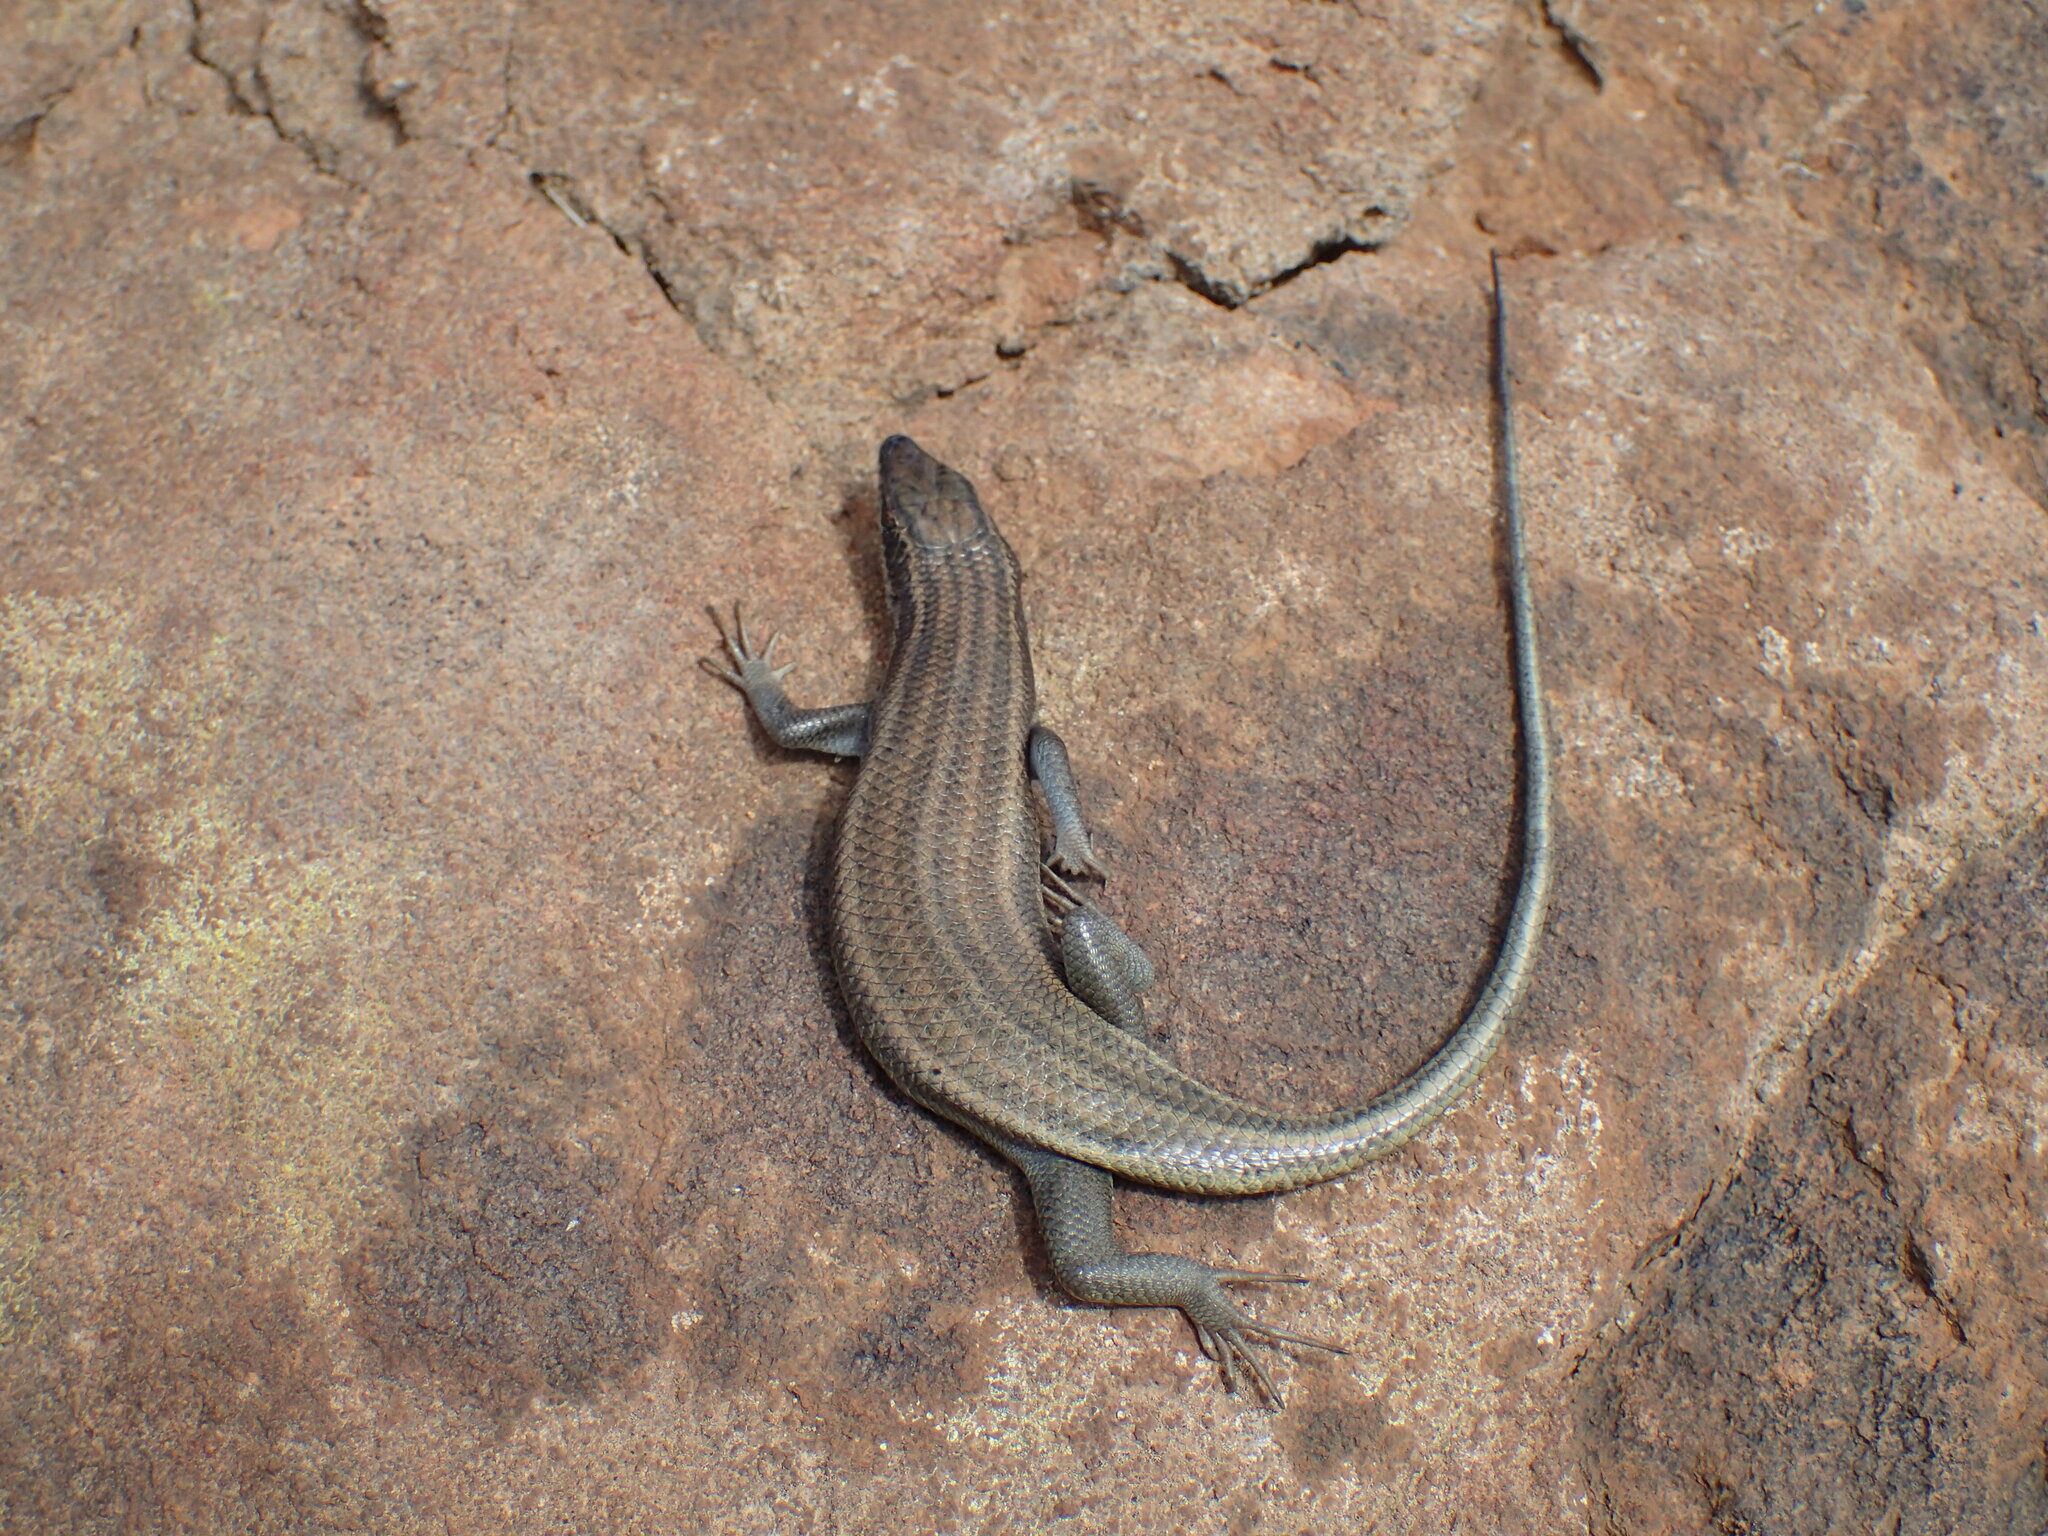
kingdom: Animalia
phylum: Chordata
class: Squamata
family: Scincidae
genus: Trachylepis
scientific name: Trachylepis sulcata
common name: Western rock skink
